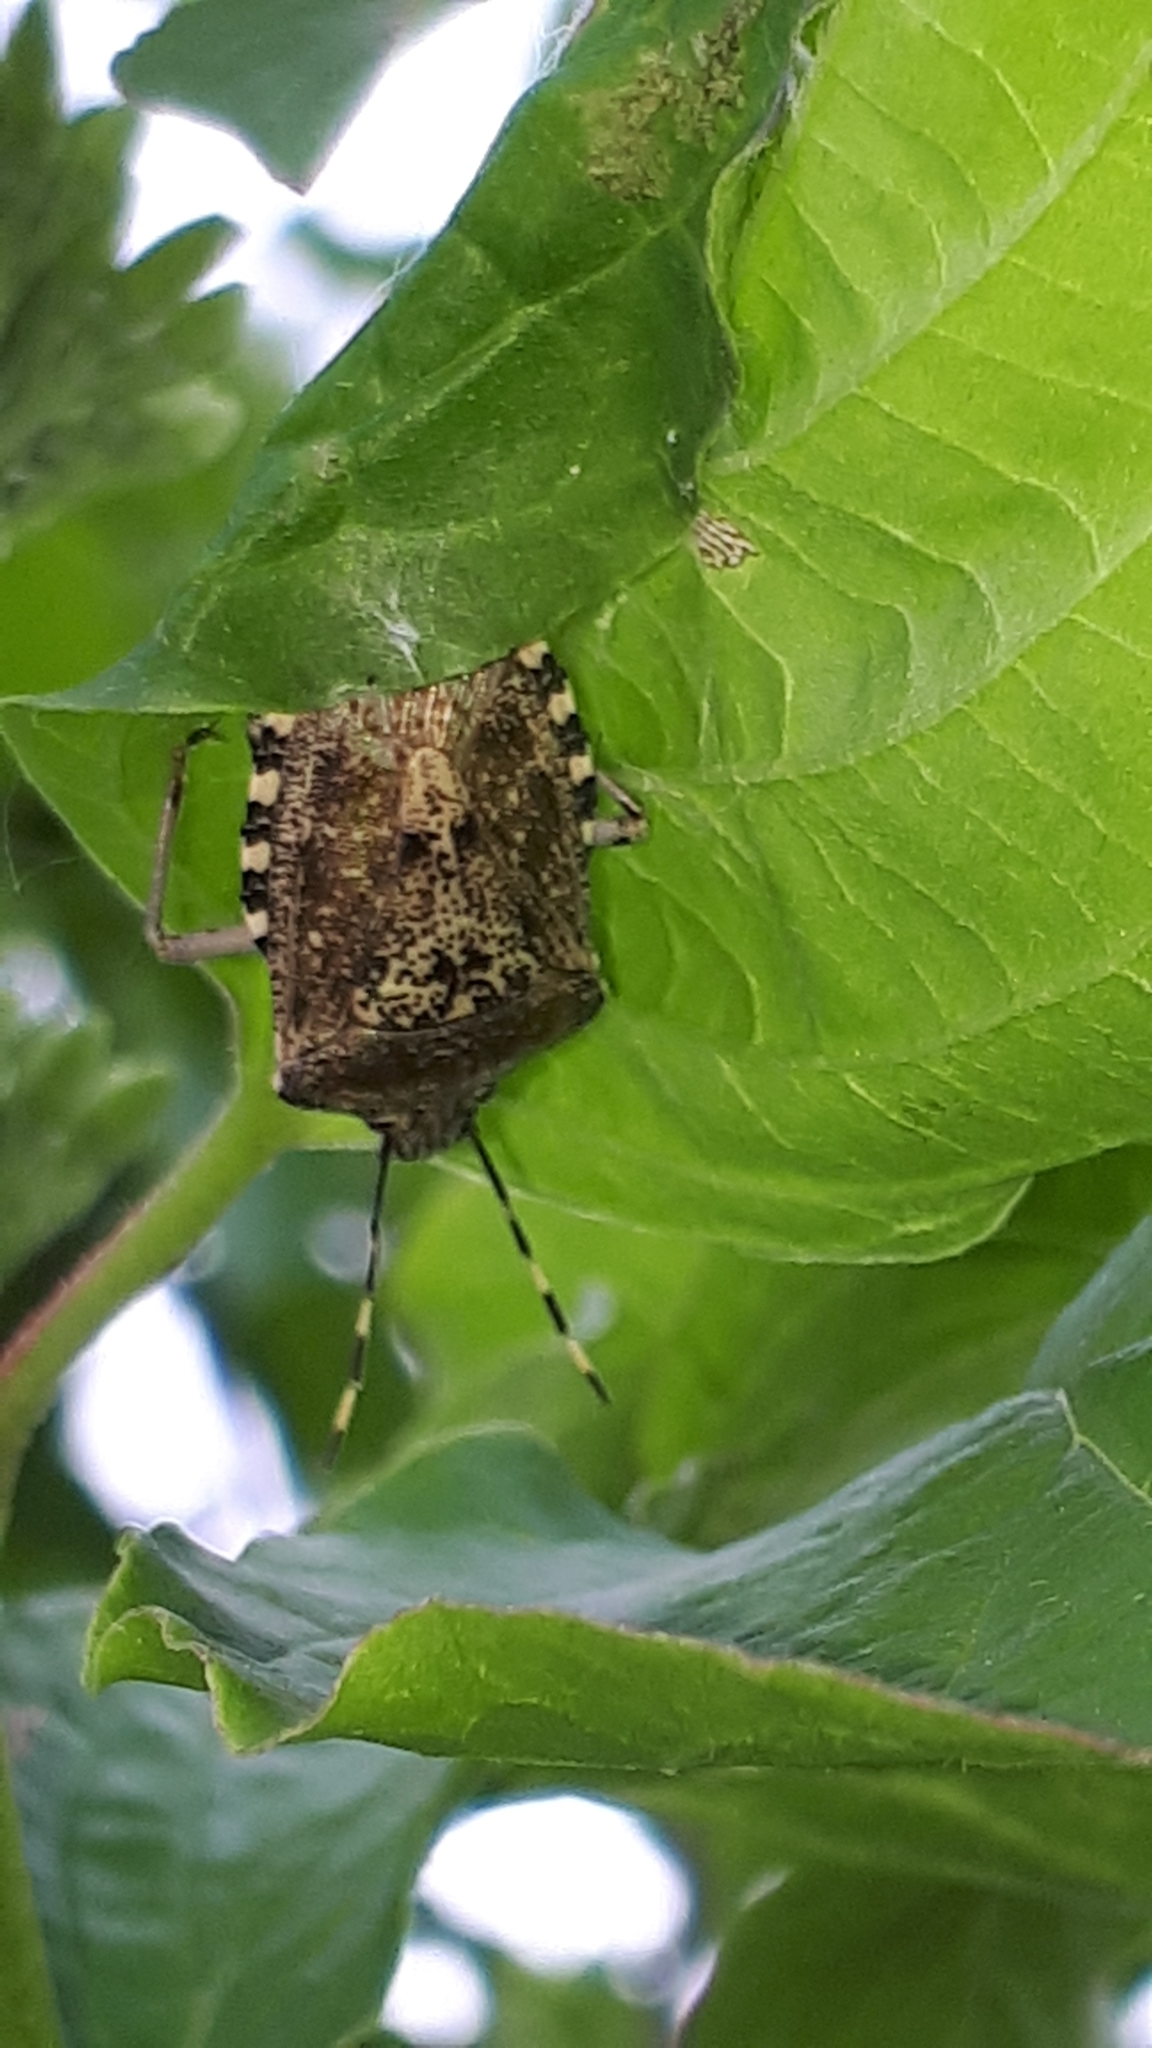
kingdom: Animalia
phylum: Arthropoda
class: Insecta
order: Hemiptera
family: Pentatomidae
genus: Rhaphigaster
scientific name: Rhaphigaster nebulosa
